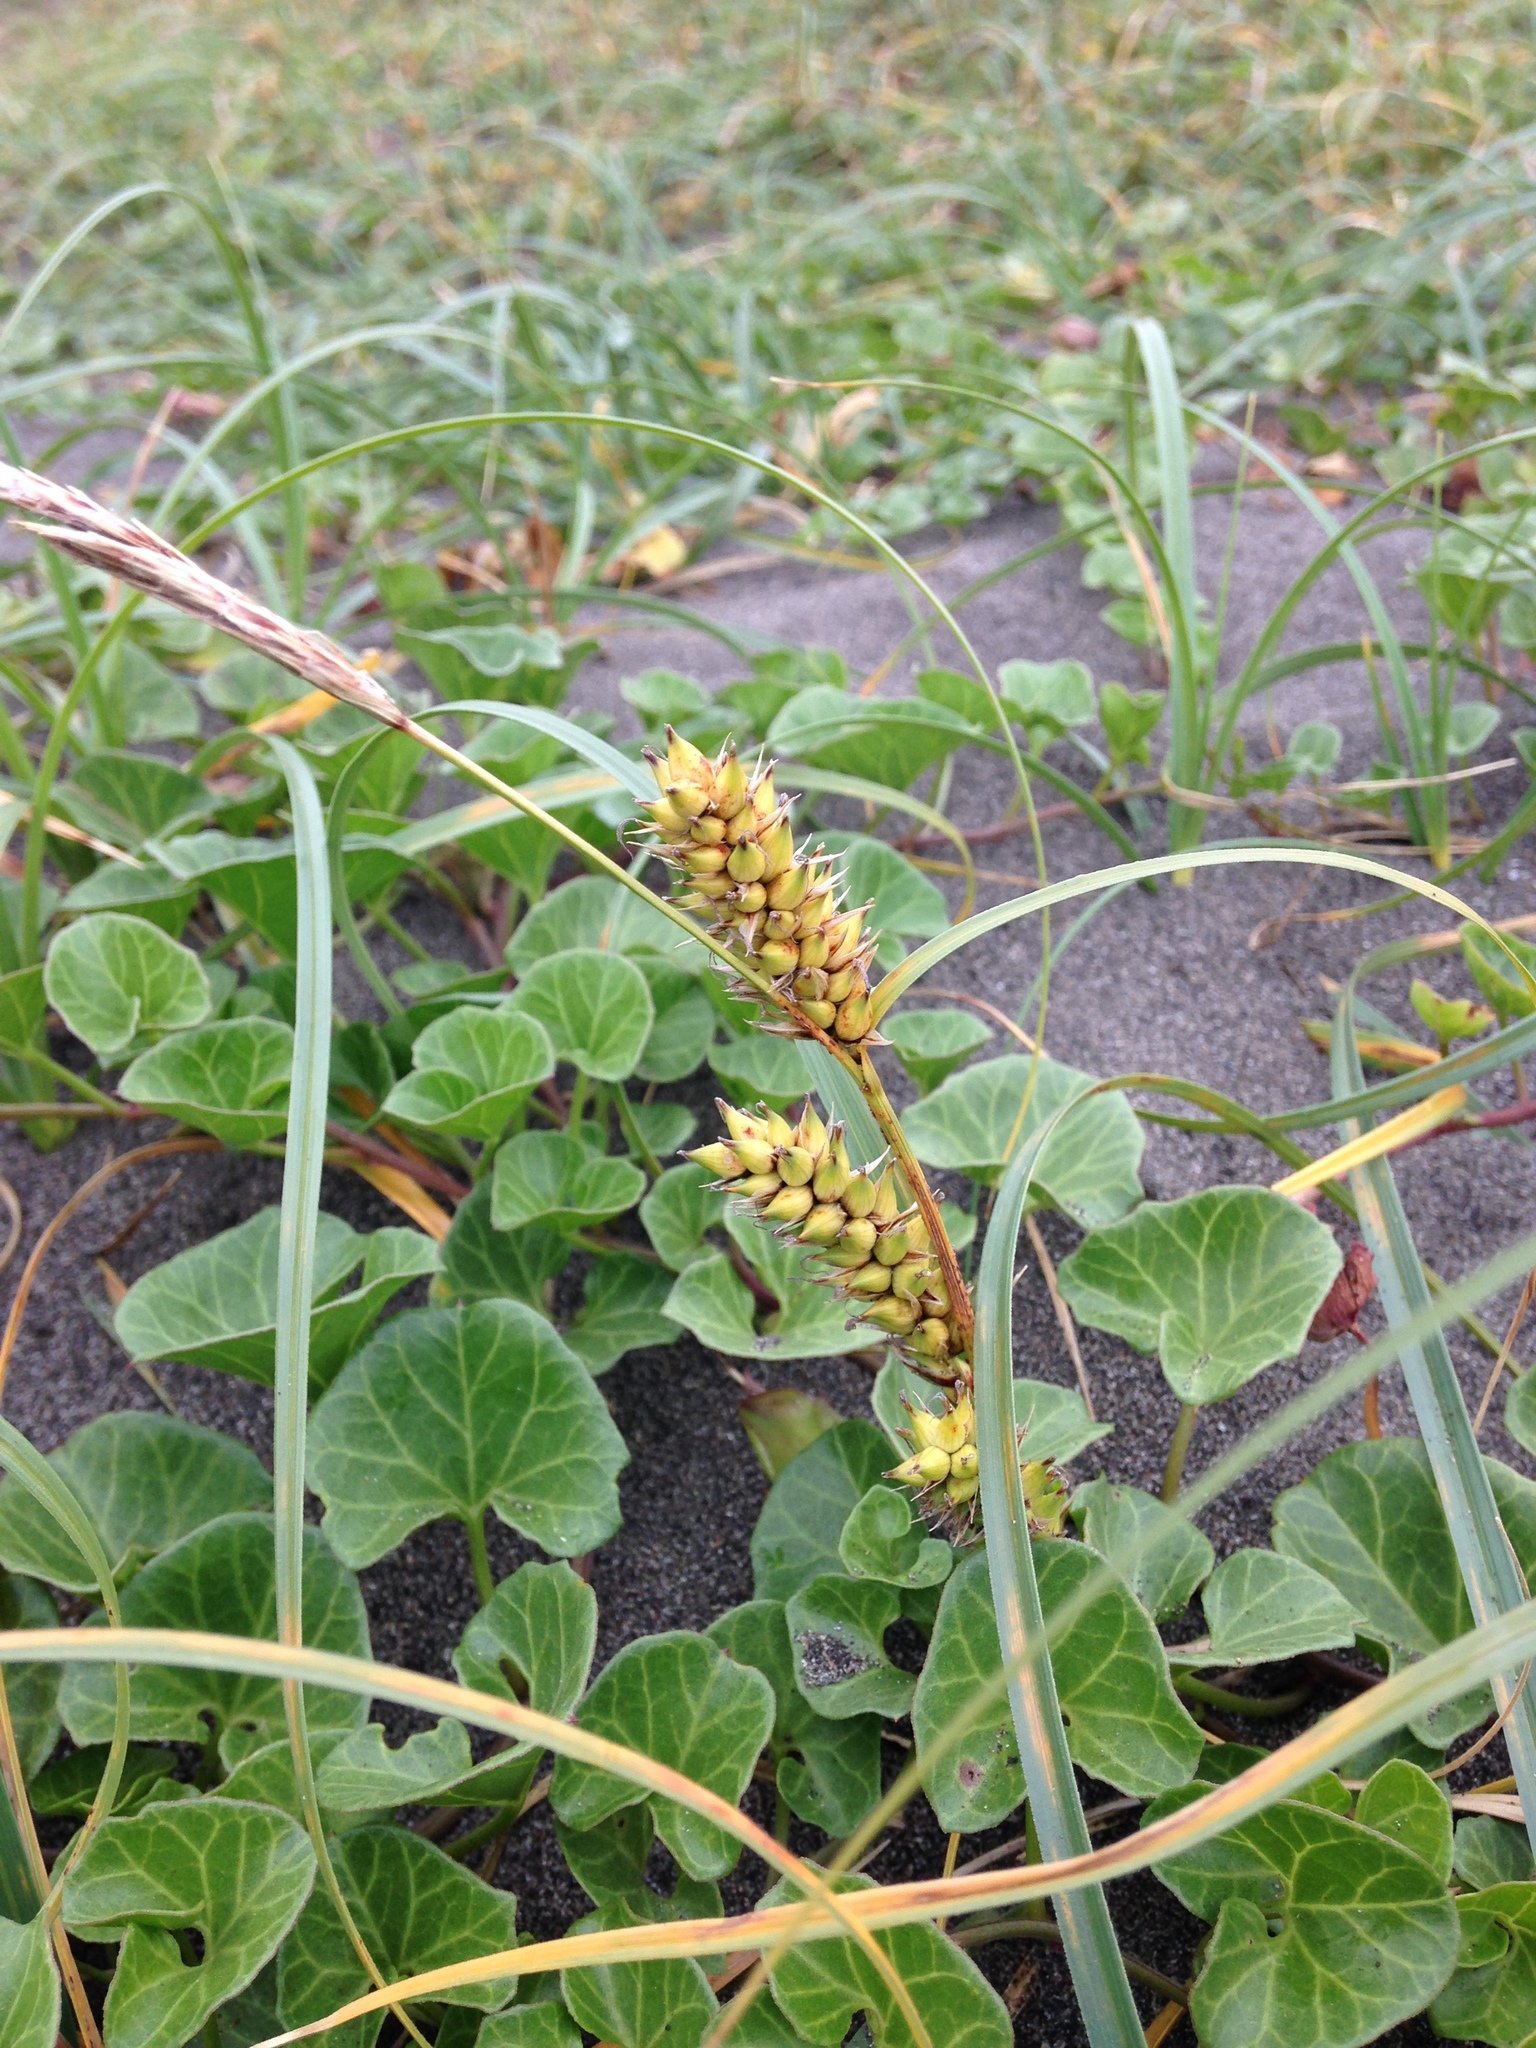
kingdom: Plantae
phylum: Tracheophyta
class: Liliopsida
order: Poales
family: Cyperaceae
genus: Carex
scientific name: Carex pumila
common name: Dwarf sedge
